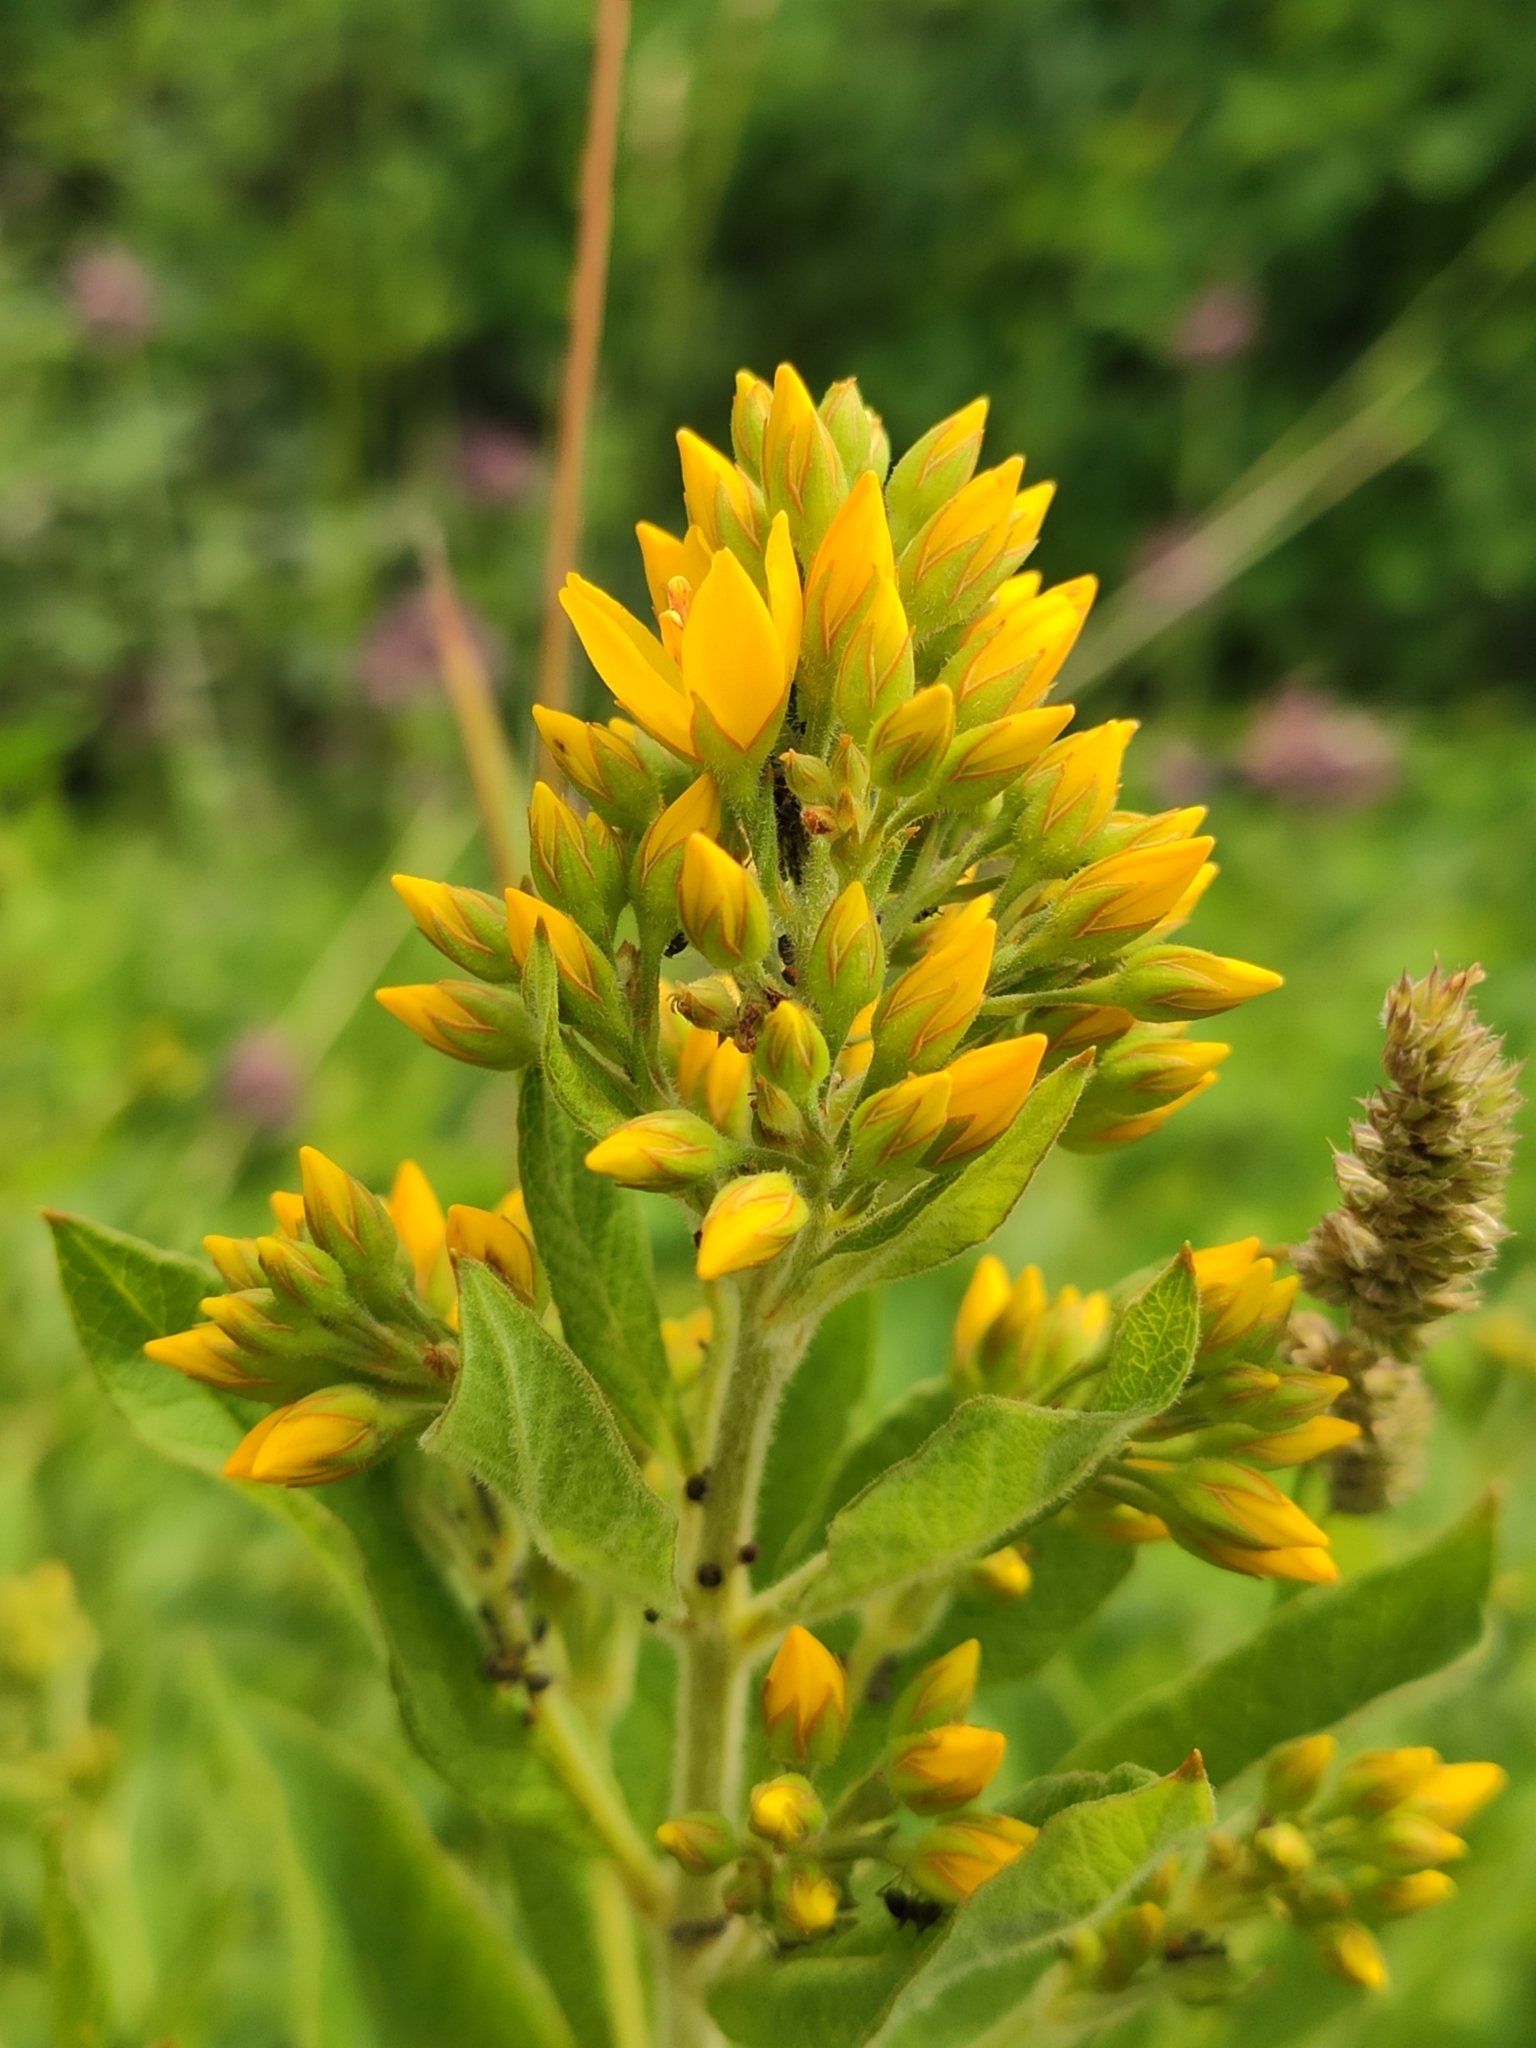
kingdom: Plantae
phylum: Tracheophyta
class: Magnoliopsida
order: Ericales
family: Primulaceae
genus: Lysimachia
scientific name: Lysimachia vulgaris
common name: Yellow loosestrife
